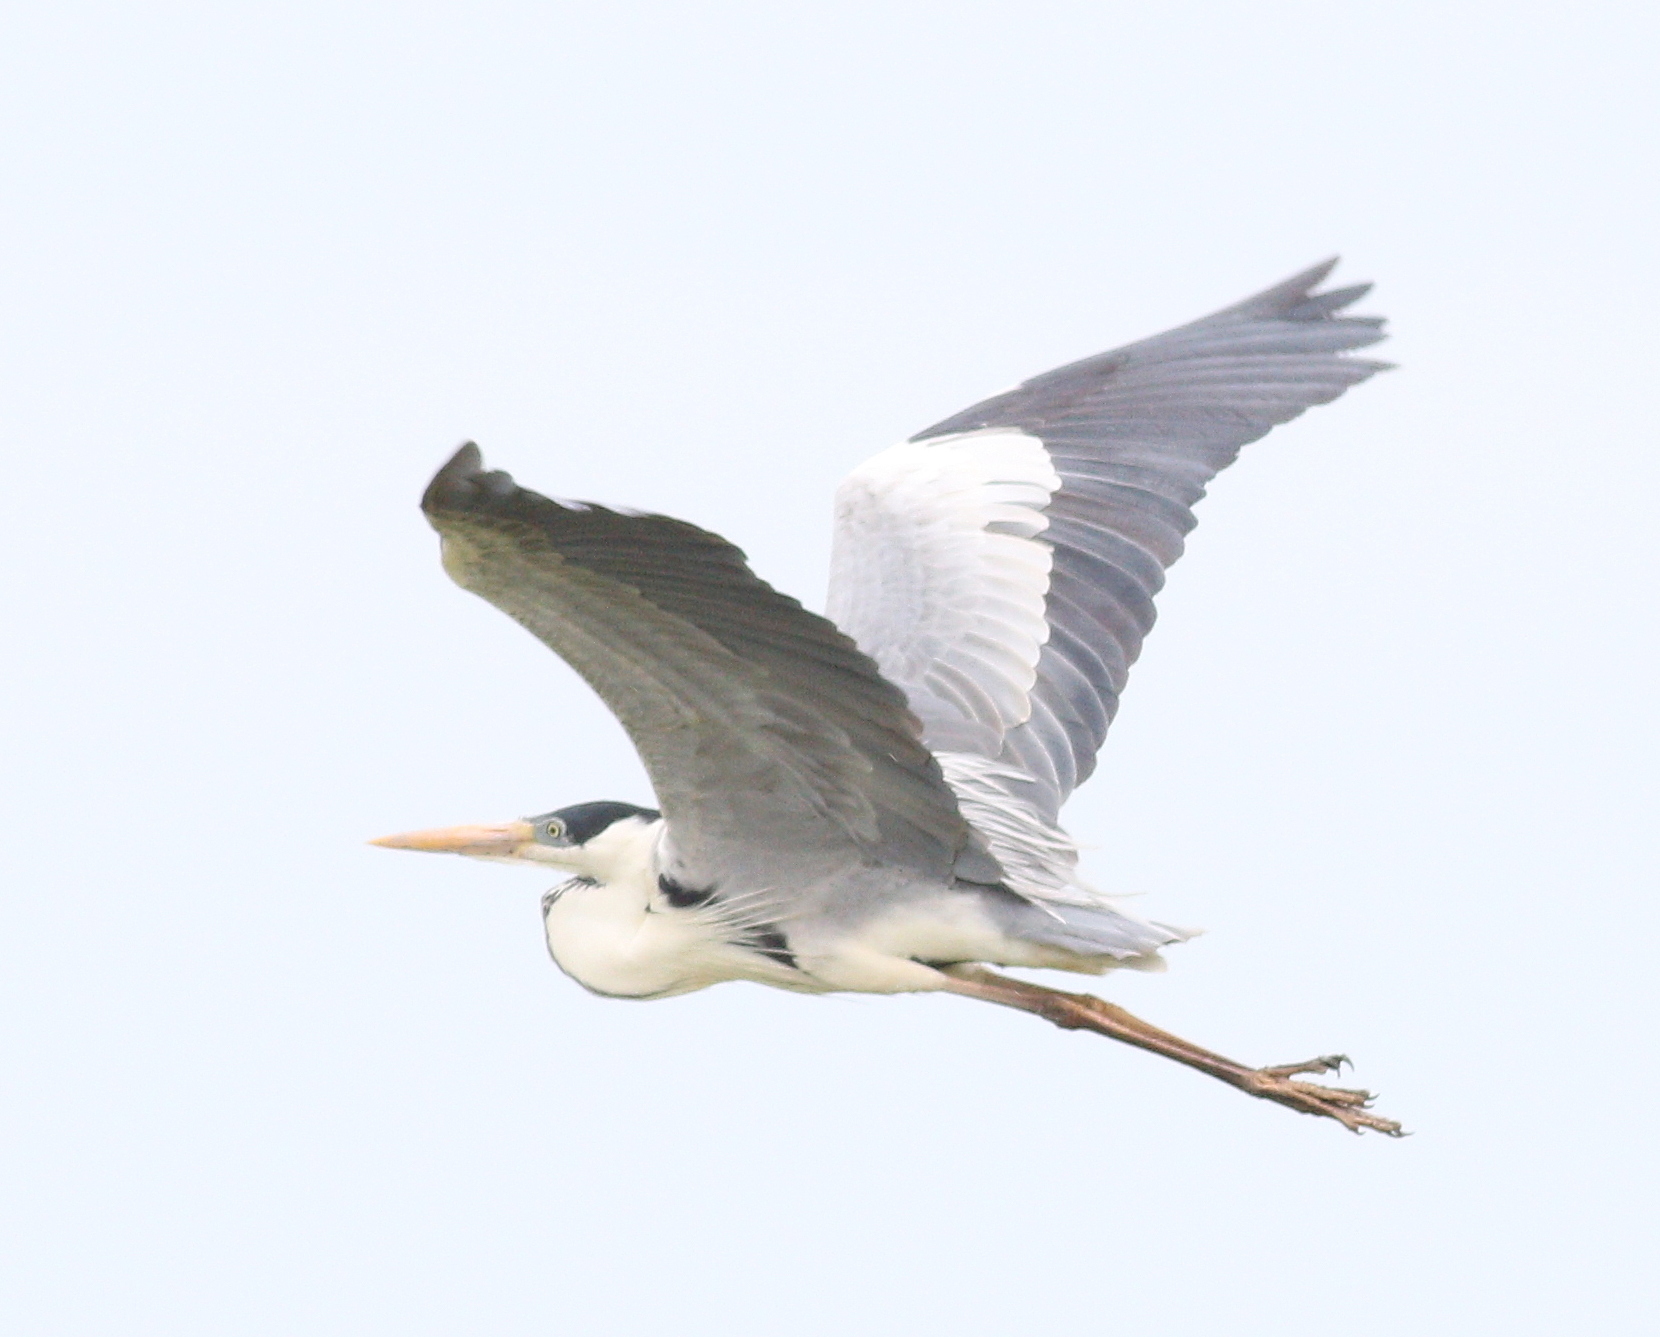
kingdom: Animalia
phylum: Chordata
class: Aves
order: Pelecaniformes
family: Ardeidae
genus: Ardea
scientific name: Ardea cocoi
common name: Cocoi heron
